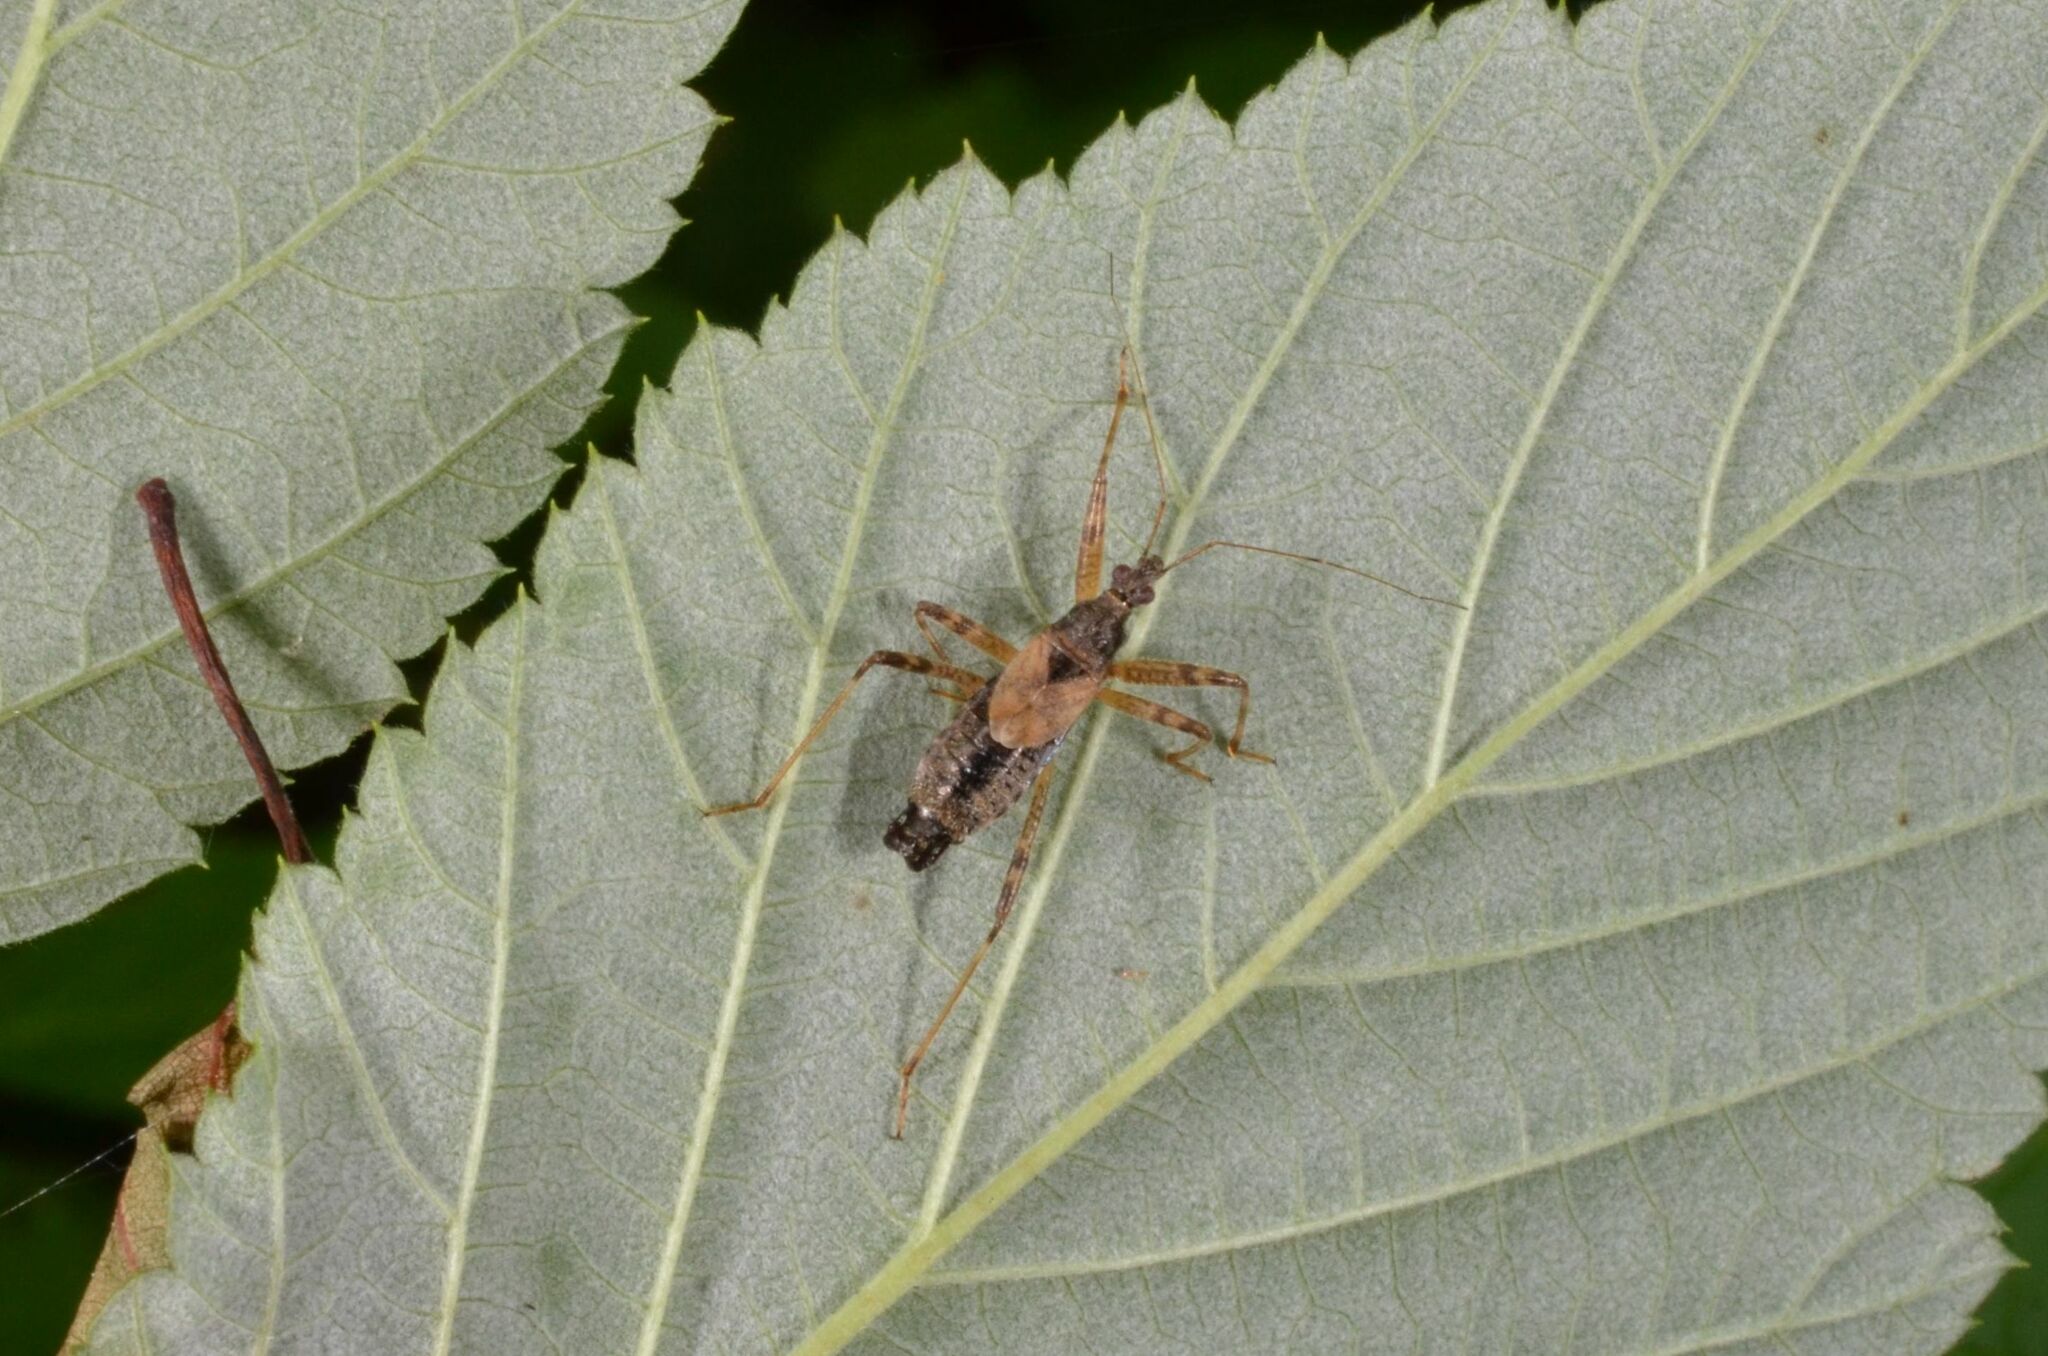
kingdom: Animalia
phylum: Arthropoda
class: Insecta
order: Hemiptera
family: Nabidae
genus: Himacerus
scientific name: Himacerus apterus
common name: Tree damsel bug
